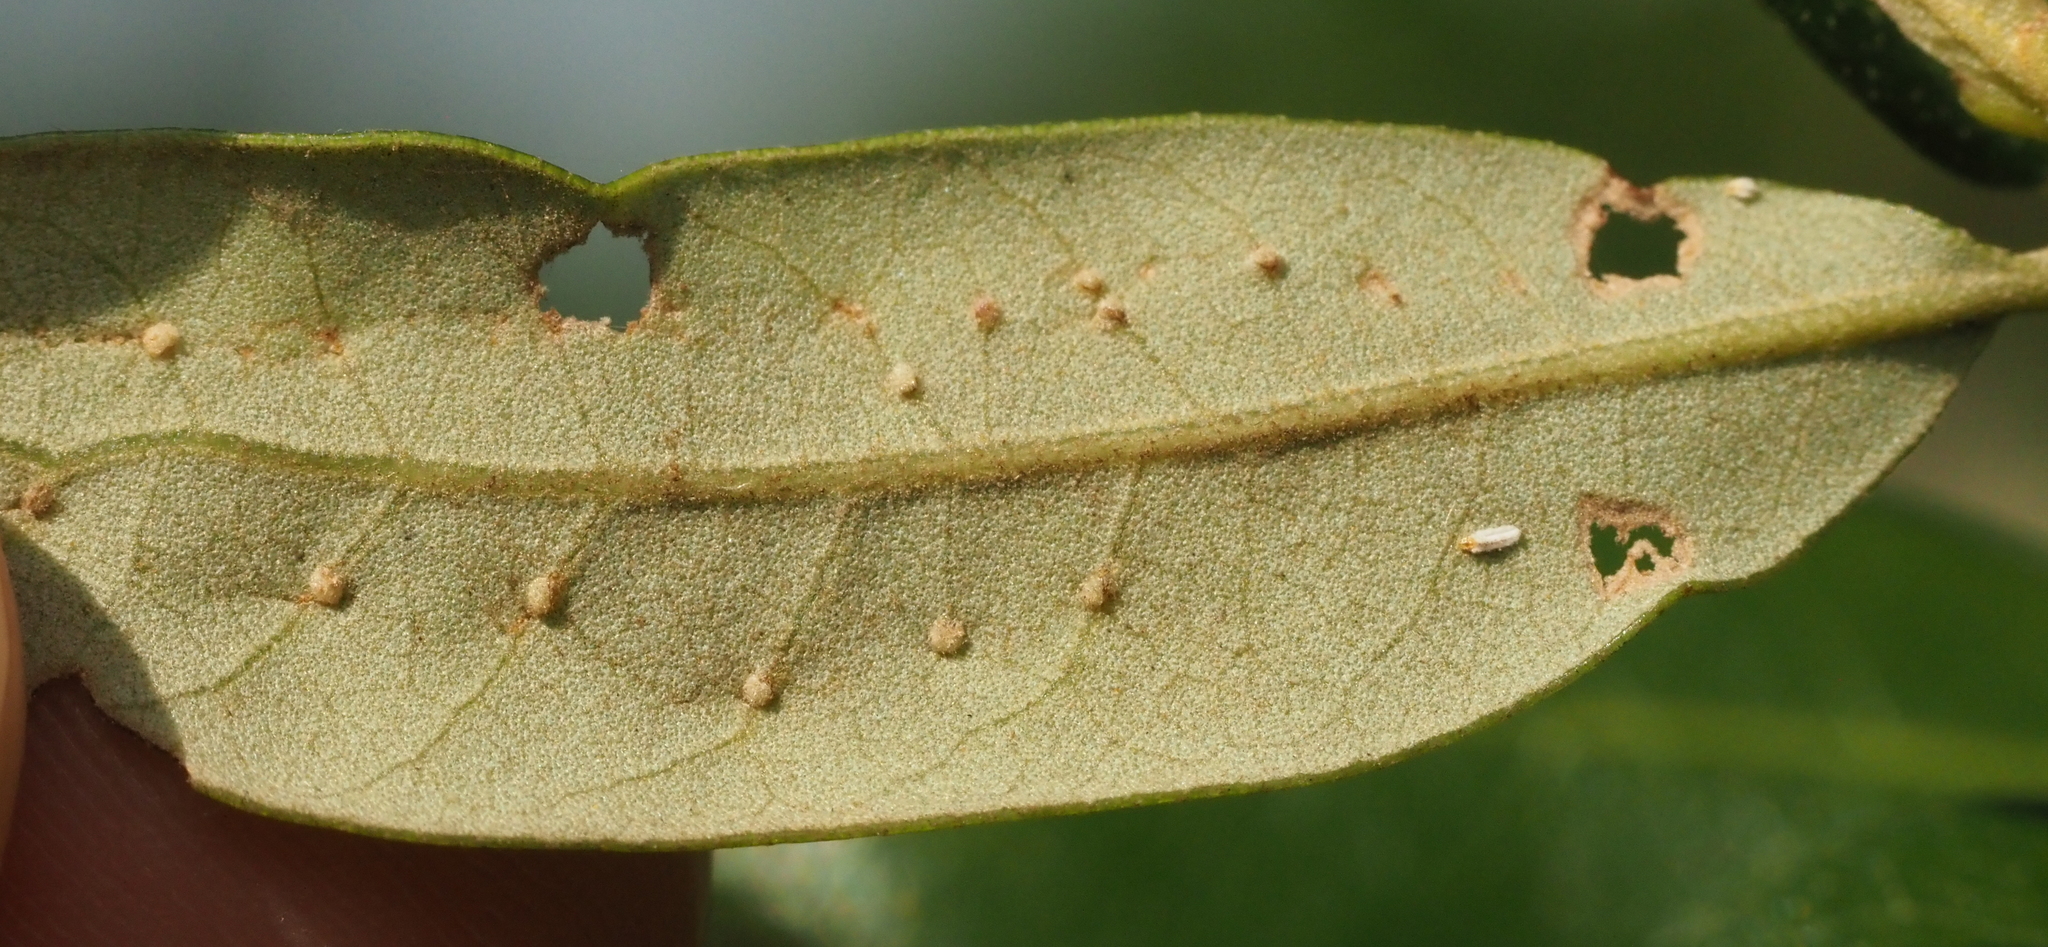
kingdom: Animalia
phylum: Arthropoda
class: Insecta
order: Hymenoptera
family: Cynipidae
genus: Belonocnema
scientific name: Belonocnema kinseyi
